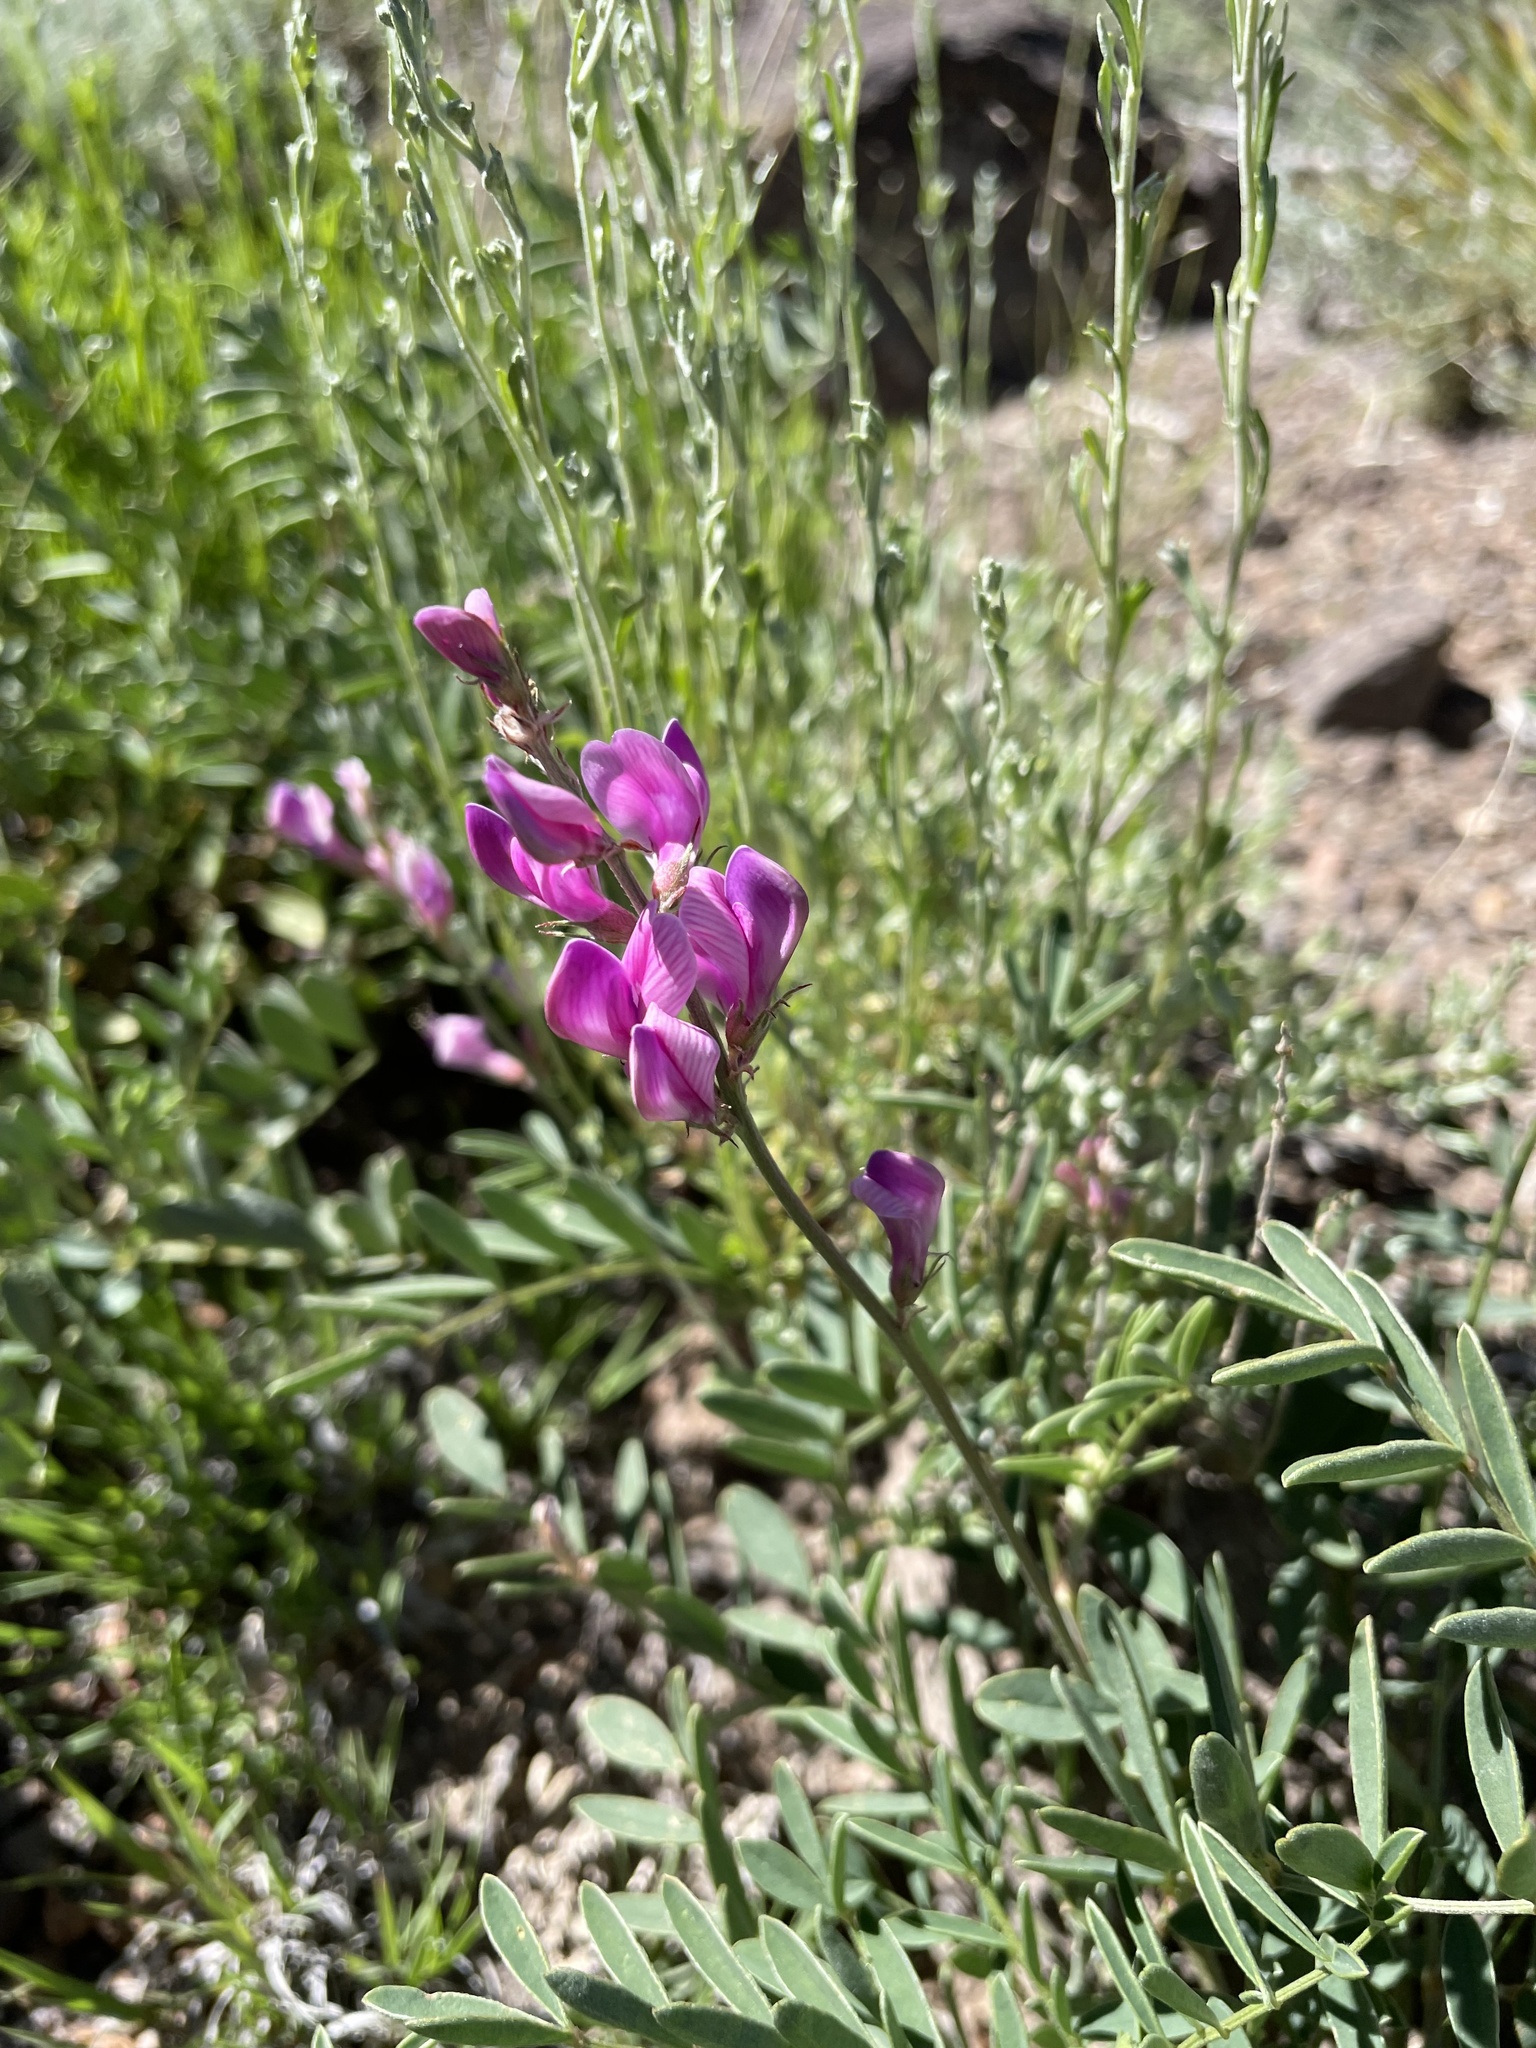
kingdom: Plantae
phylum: Tracheophyta
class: Magnoliopsida
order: Fabales
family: Fabaceae
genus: Hedysarum
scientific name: Hedysarum boreale
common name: Northern sweet-vetch
